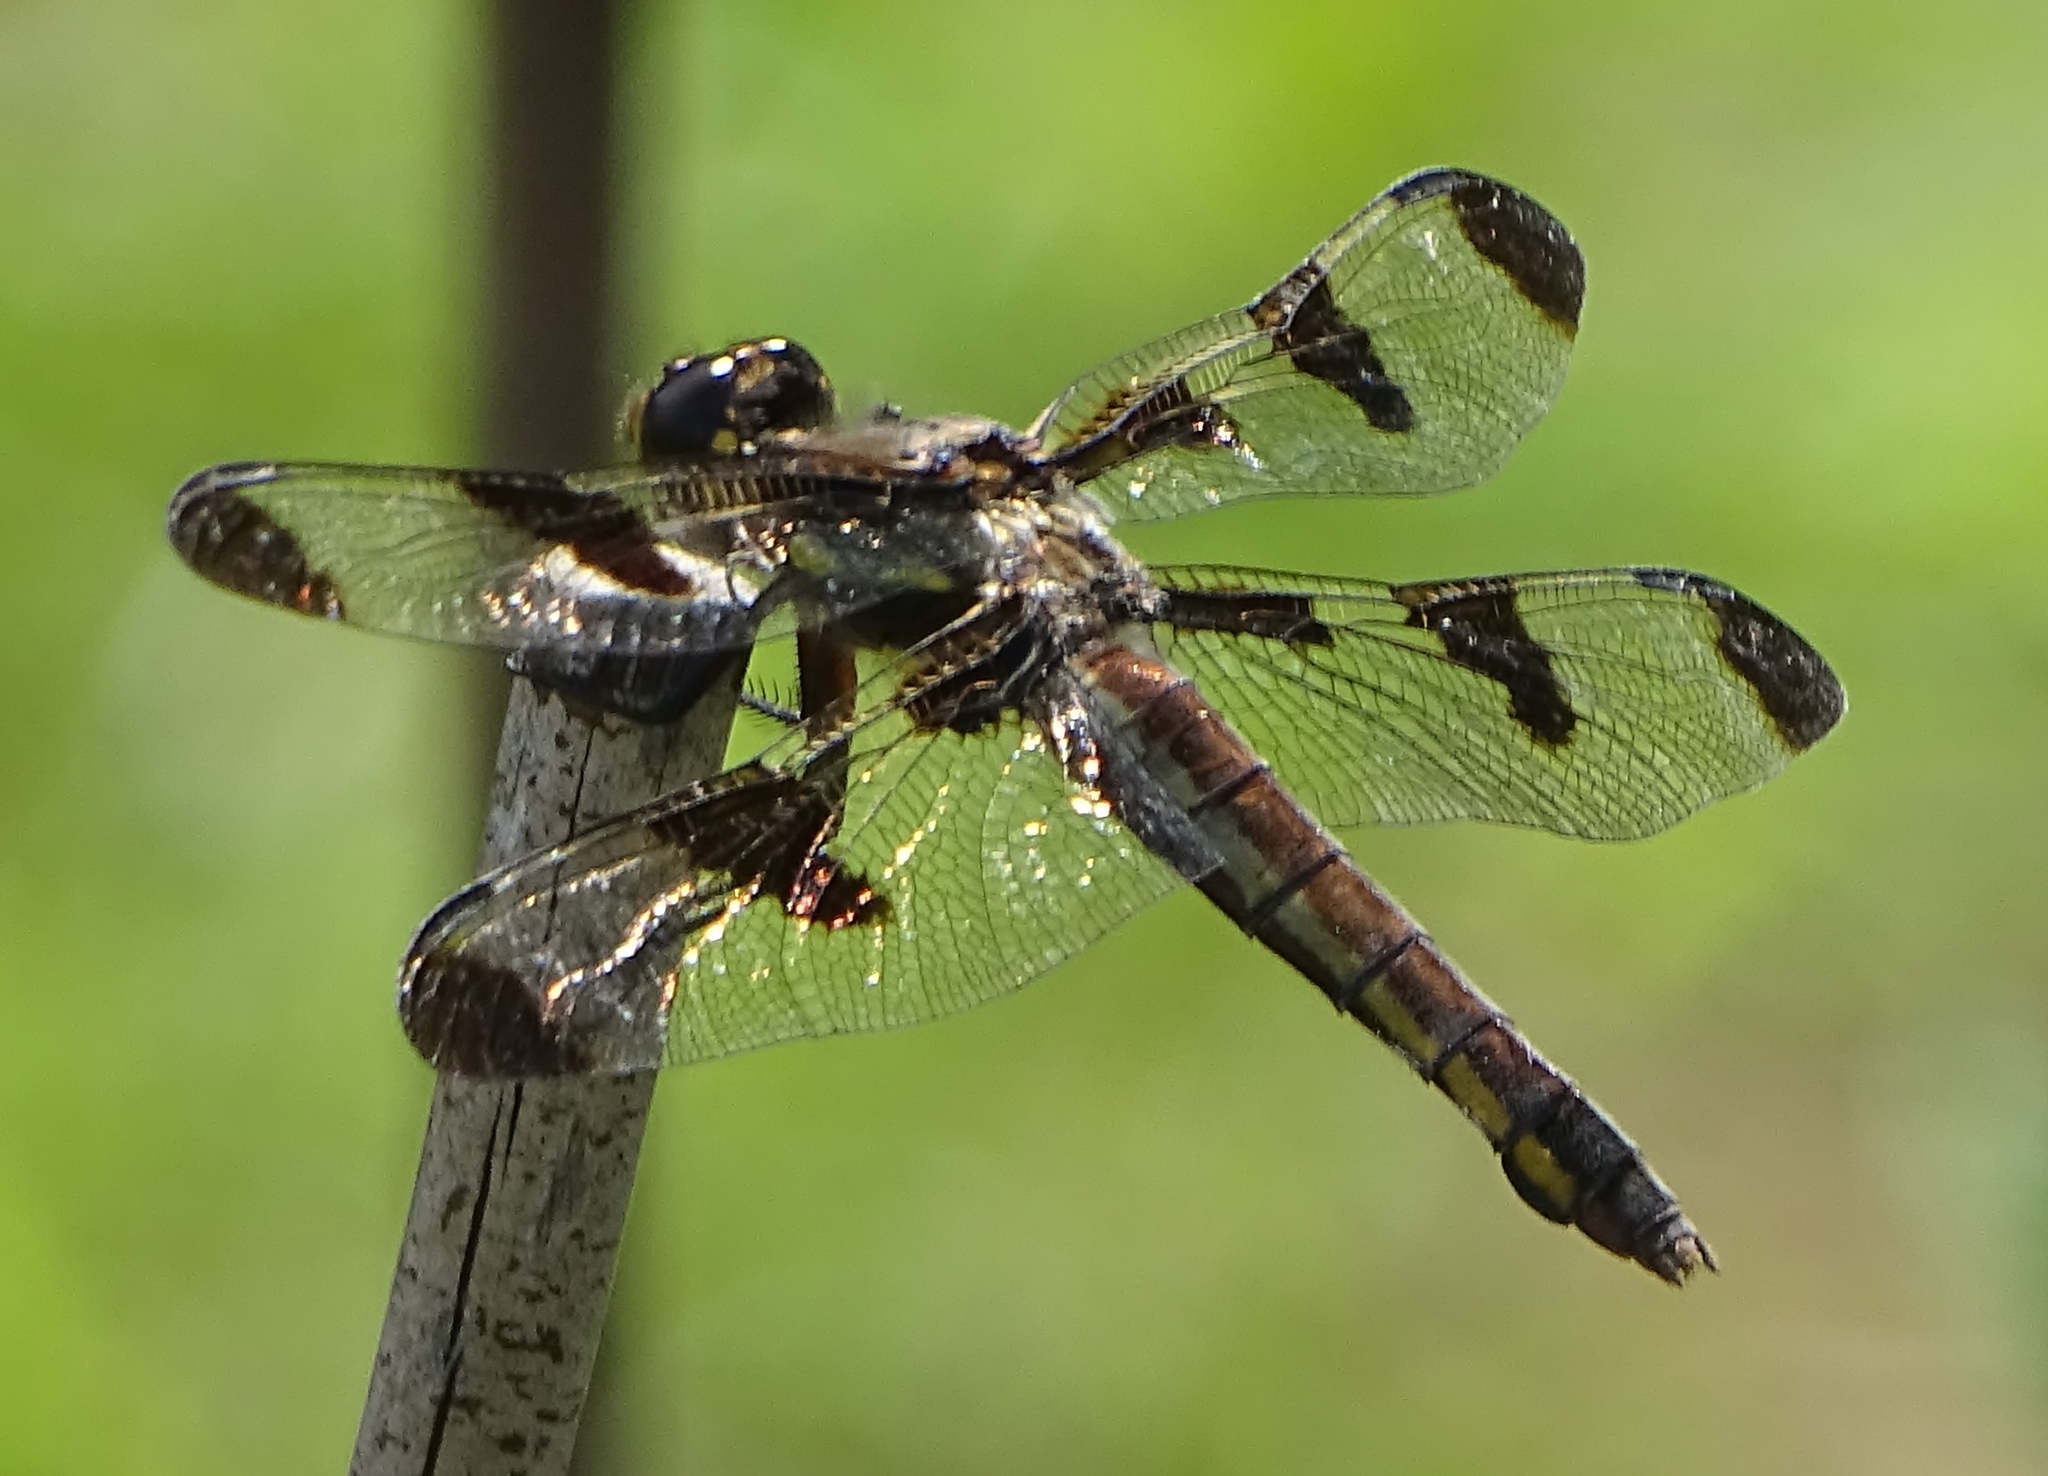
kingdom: Animalia
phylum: Arthropoda
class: Insecta
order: Odonata
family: Libellulidae
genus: Libellula
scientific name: Libellula pulchella
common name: Twelve-spotted skimmer
